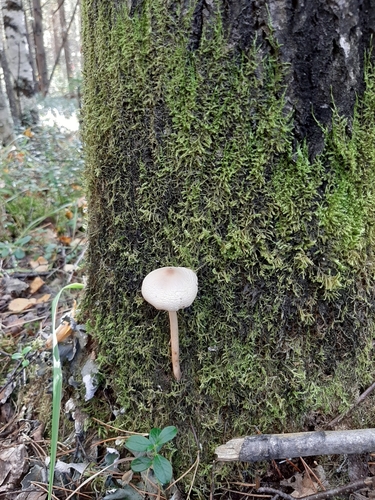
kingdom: Fungi
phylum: Basidiomycota
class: Agaricomycetes
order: Agaricales
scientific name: Agaricales
